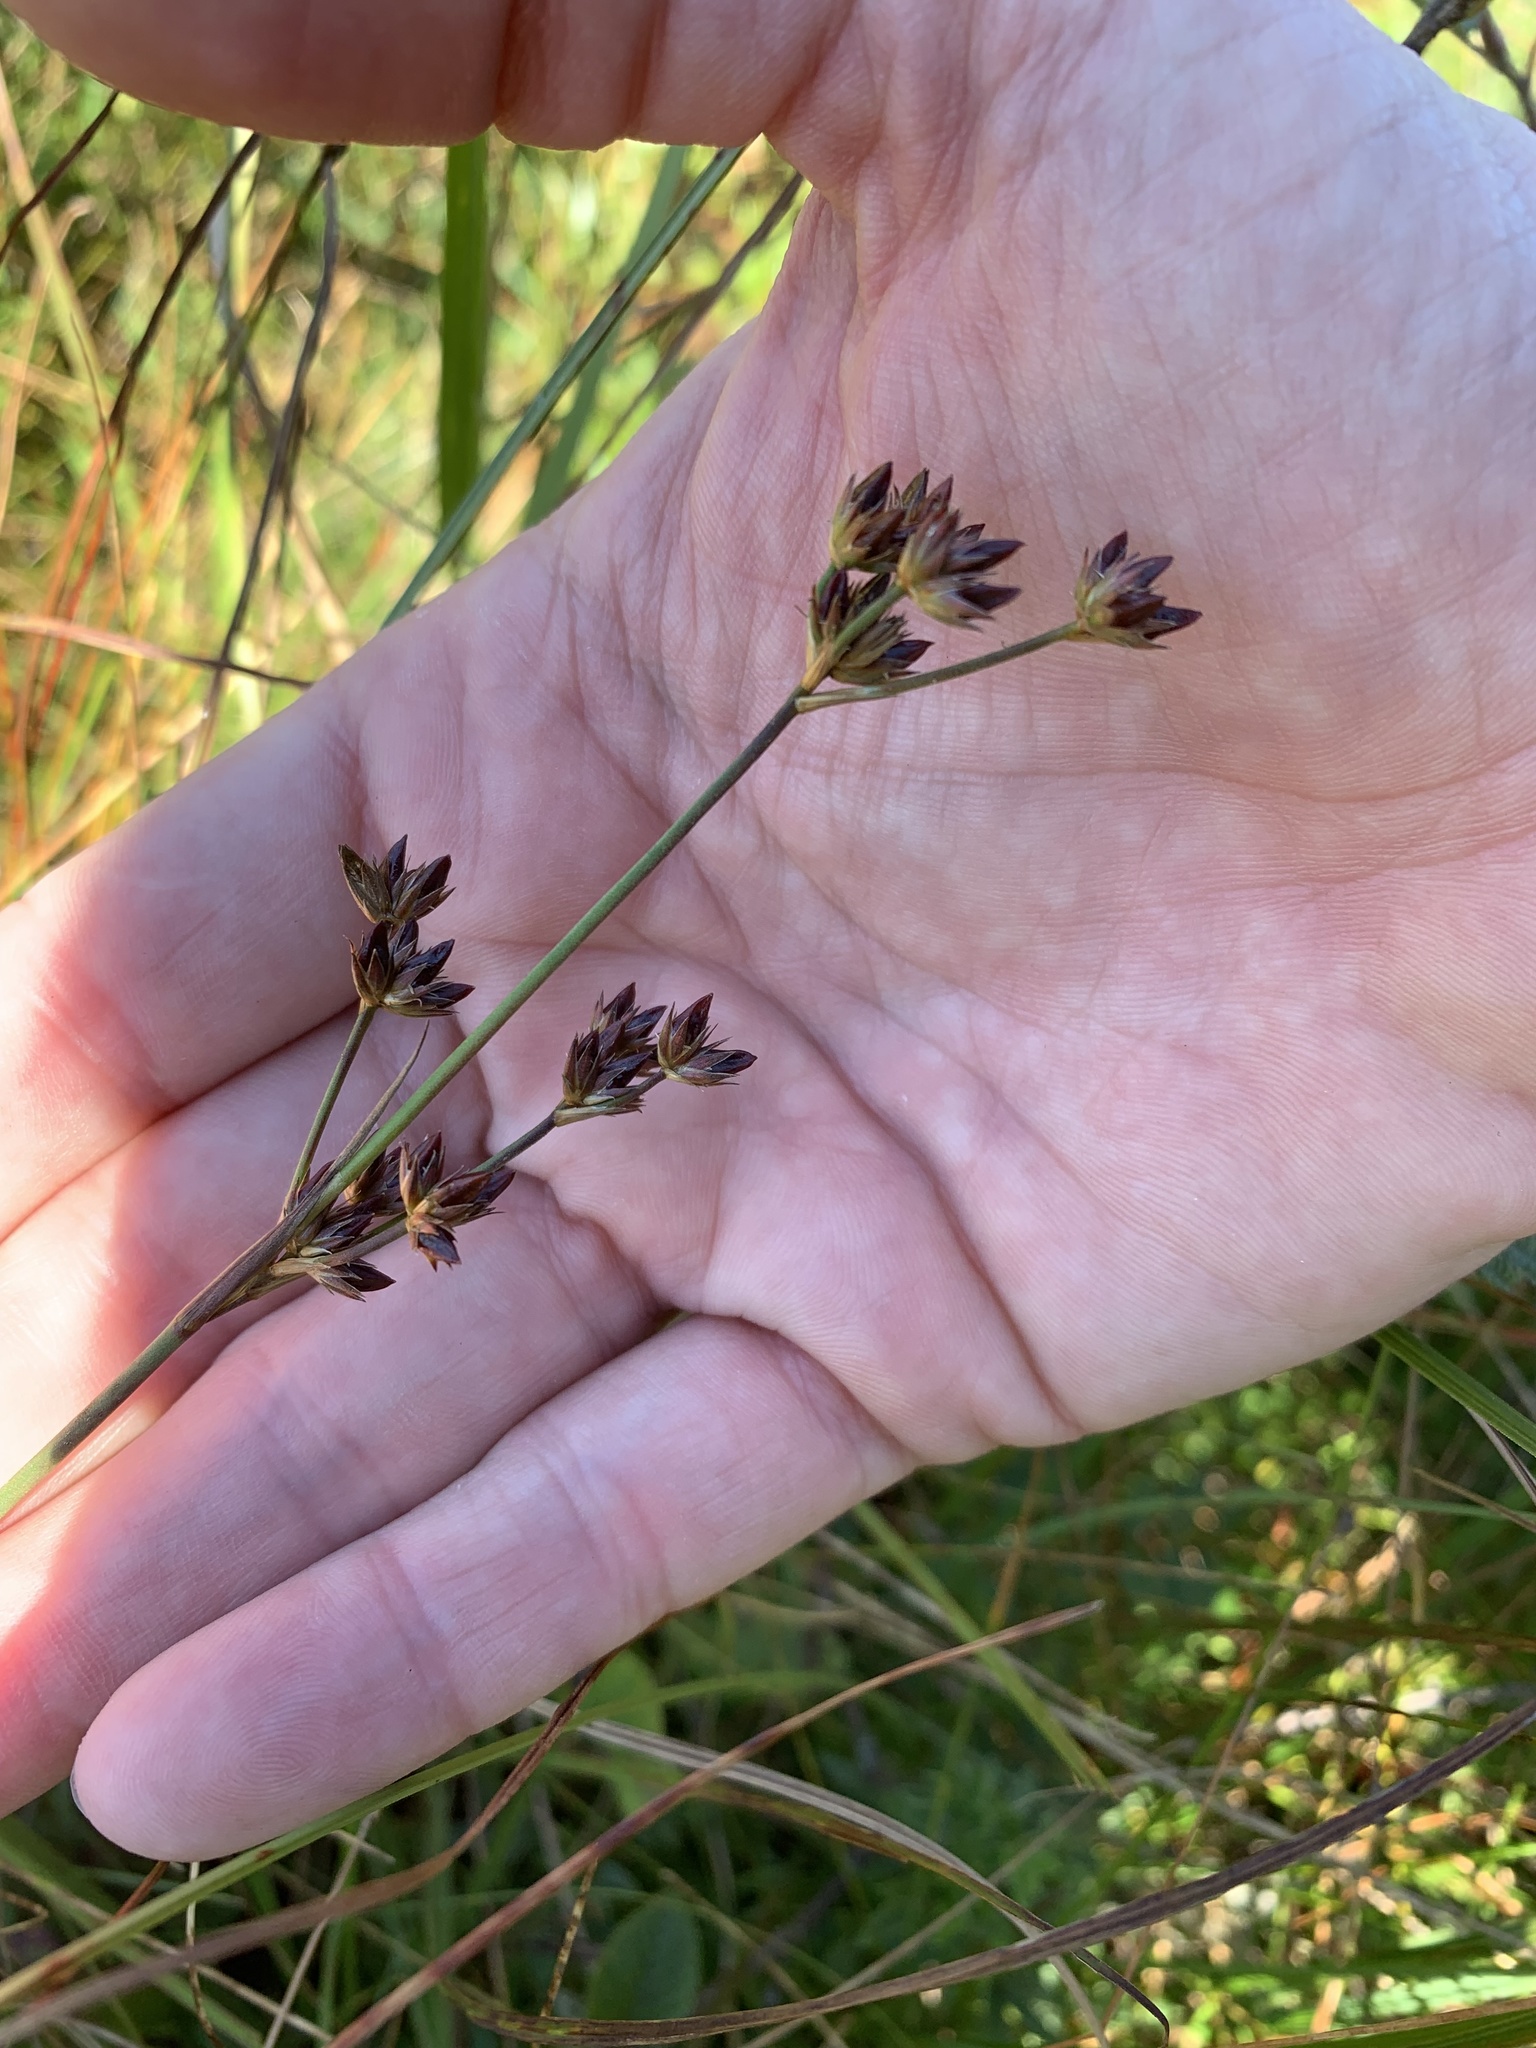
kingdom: Plantae
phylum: Tracheophyta
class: Liliopsida
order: Poales
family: Juncaceae
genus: Juncus
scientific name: Juncus caesariensis
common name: New jersey rush
